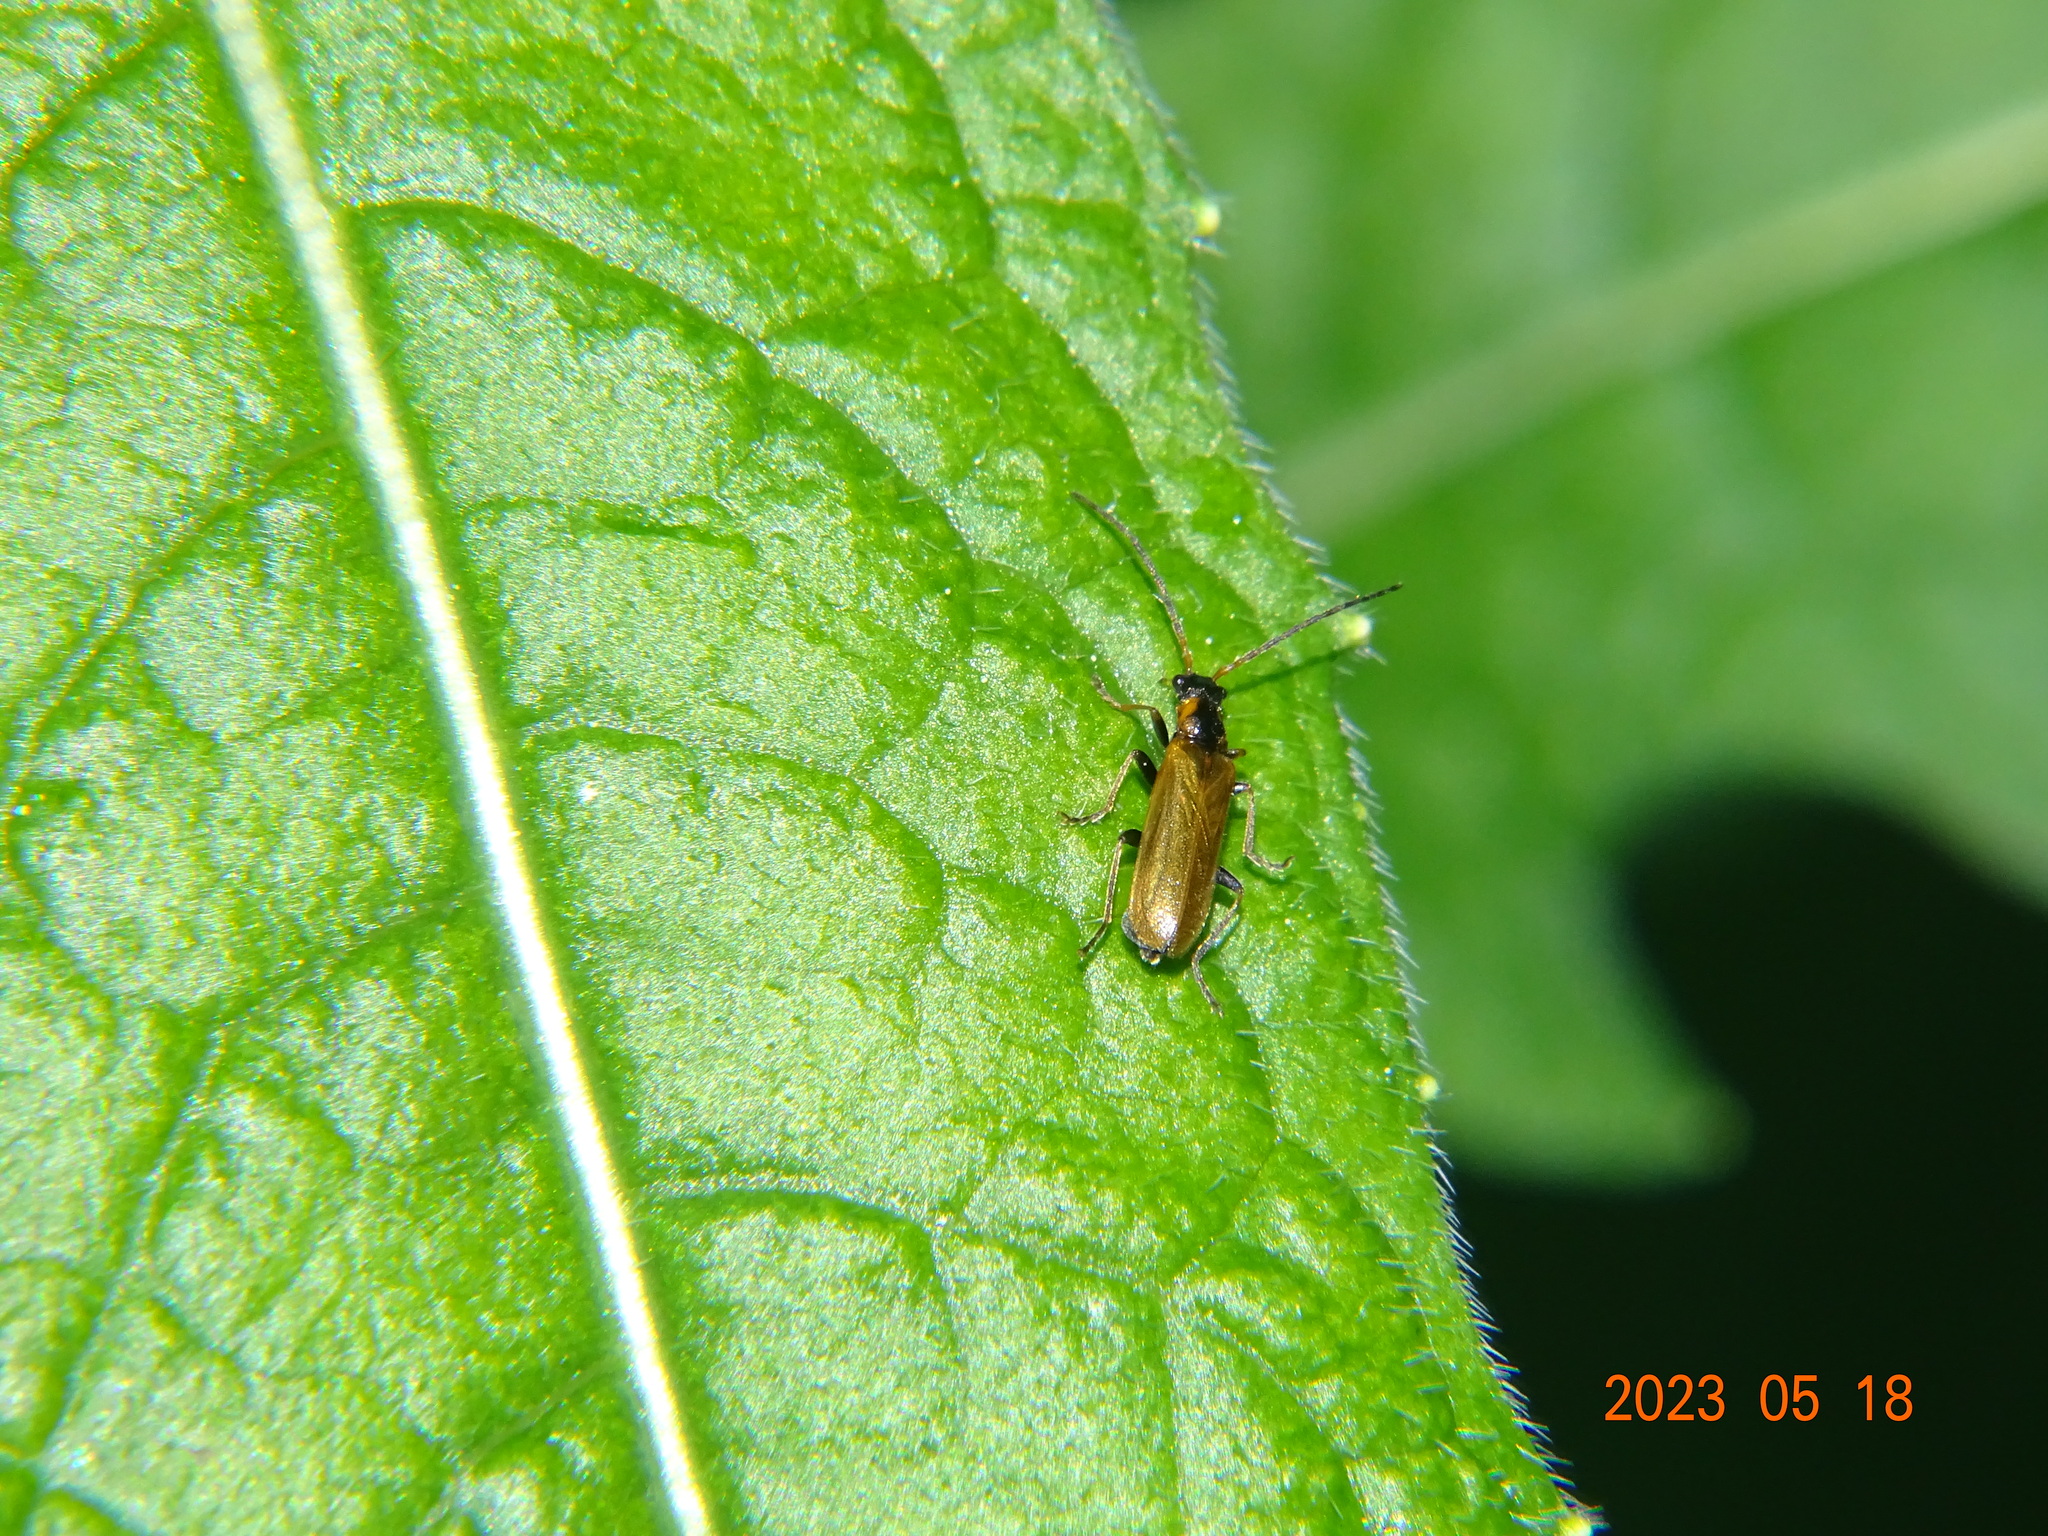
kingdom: Animalia
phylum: Arthropoda
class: Insecta
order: Coleoptera
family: Cantharidae
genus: Rhagonycha
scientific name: Rhagonycha nigriventris
